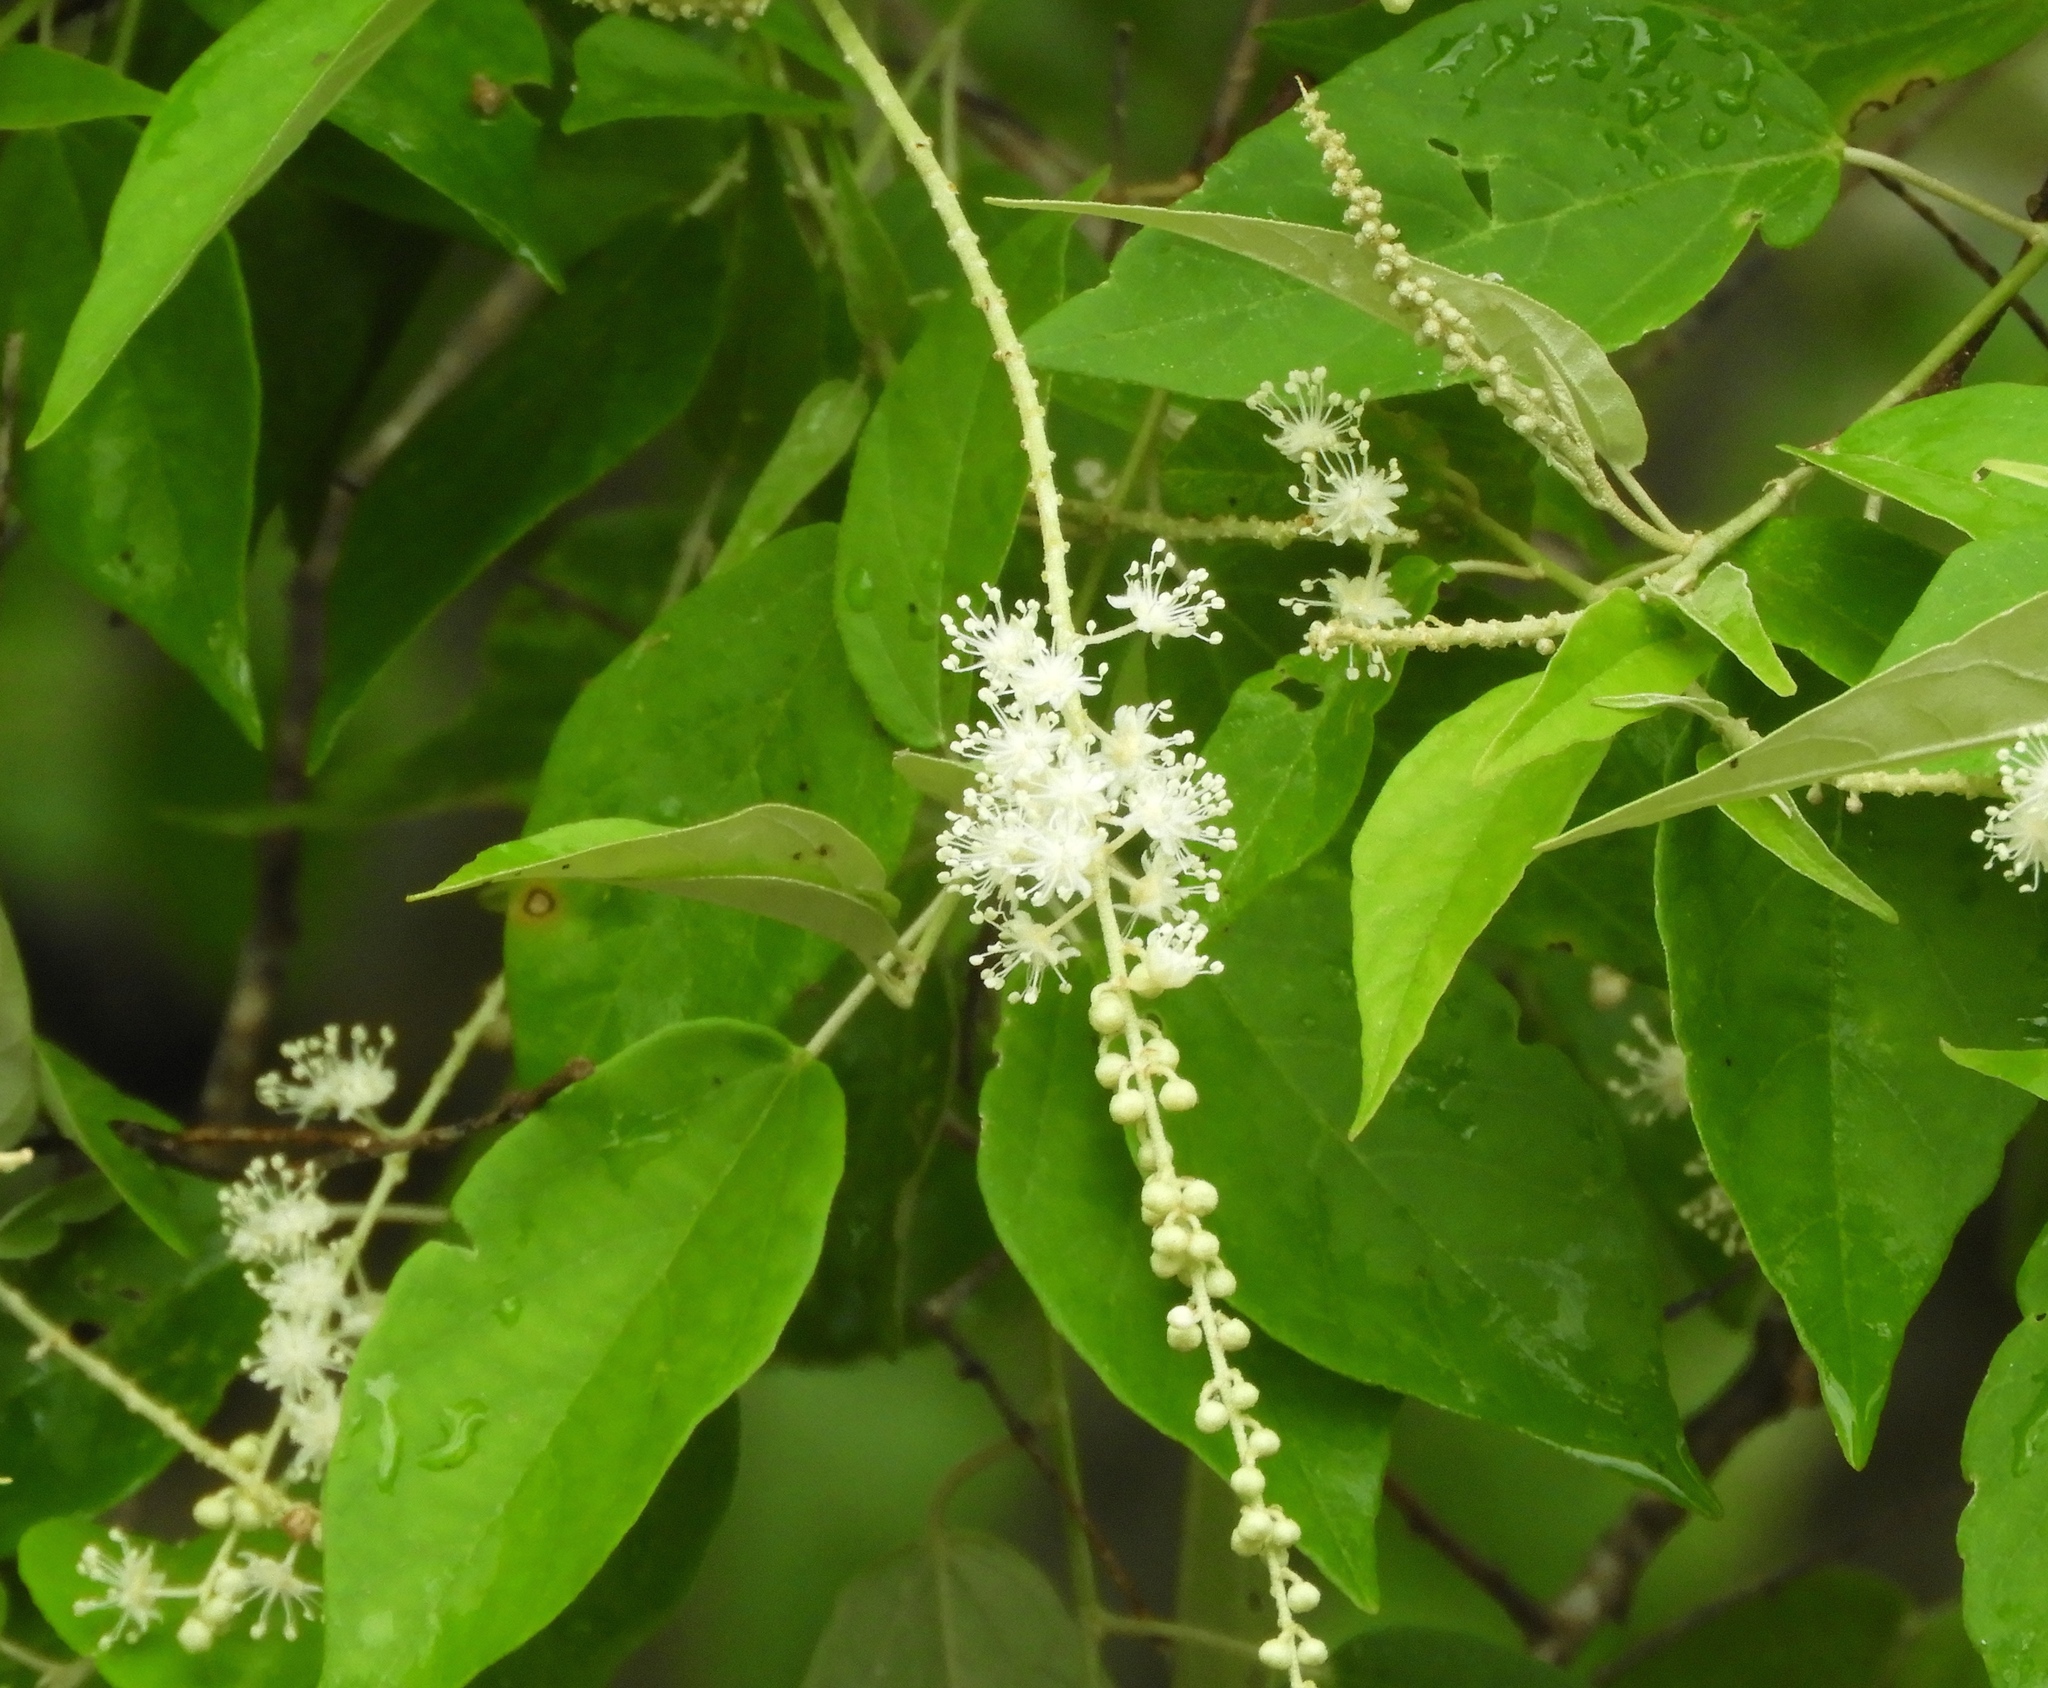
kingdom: Plantae
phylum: Tracheophyta
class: Magnoliopsida
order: Malpighiales
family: Euphorbiaceae
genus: Croton
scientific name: Croton roxanae
